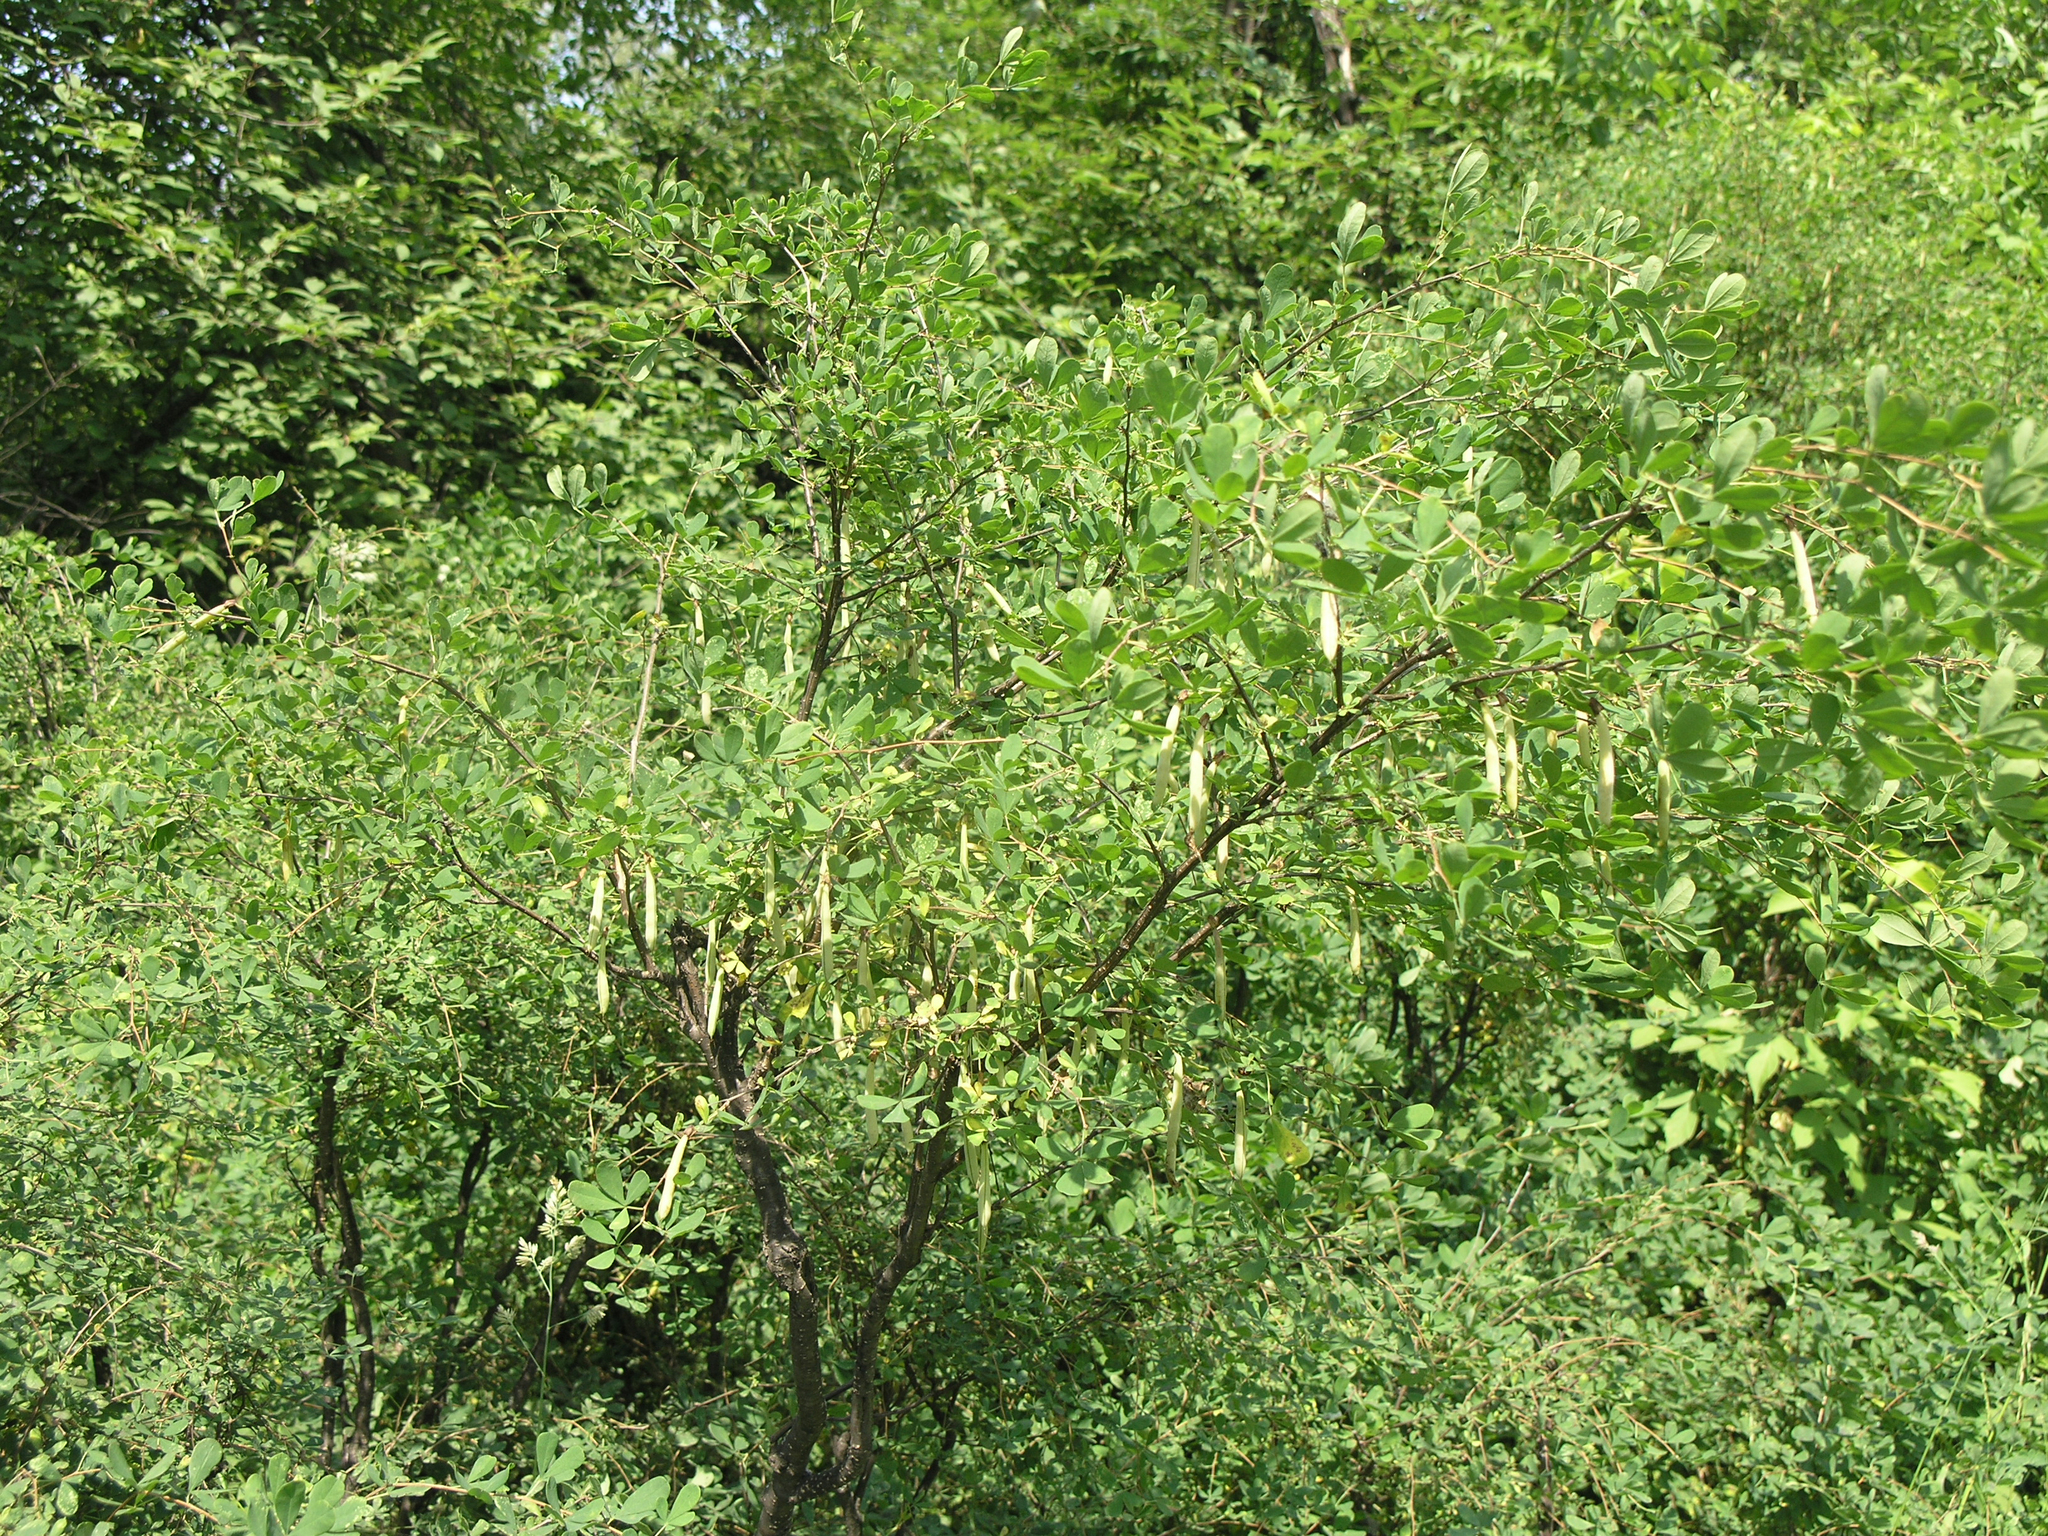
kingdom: Plantae
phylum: Tracheophyta
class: Magnoliopsida
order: Fabales
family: Fabaceae
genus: Caragana
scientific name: Caragana frutex
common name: Russian peashrub
